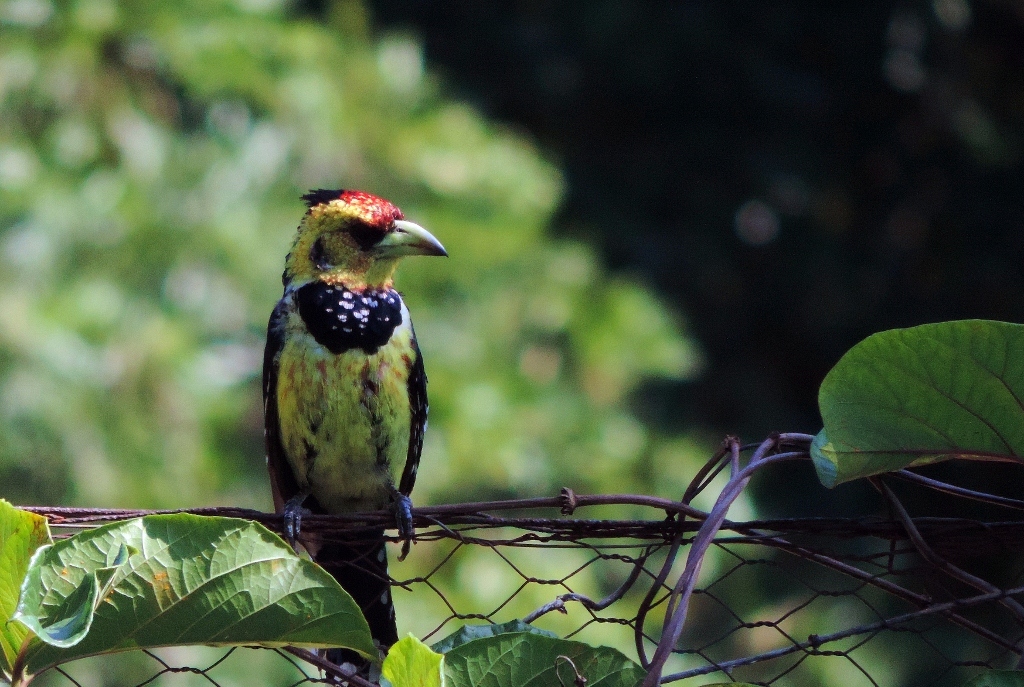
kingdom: Animalia
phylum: Chordata
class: Aves
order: Piciformes
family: Lybiidae
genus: Trachyphonus
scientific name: Trachyphonus vaillantii
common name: Crested barbet
